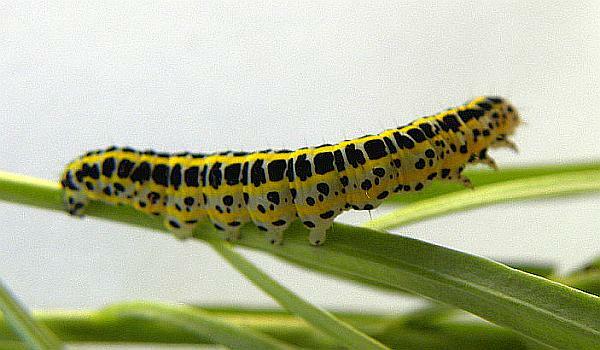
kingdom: Animalia
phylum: Arthropoda
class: Insecta
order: Lepidoptera
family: Noctuidae
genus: Calophasia
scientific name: Calophasia lunula
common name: Toadflax brocade
